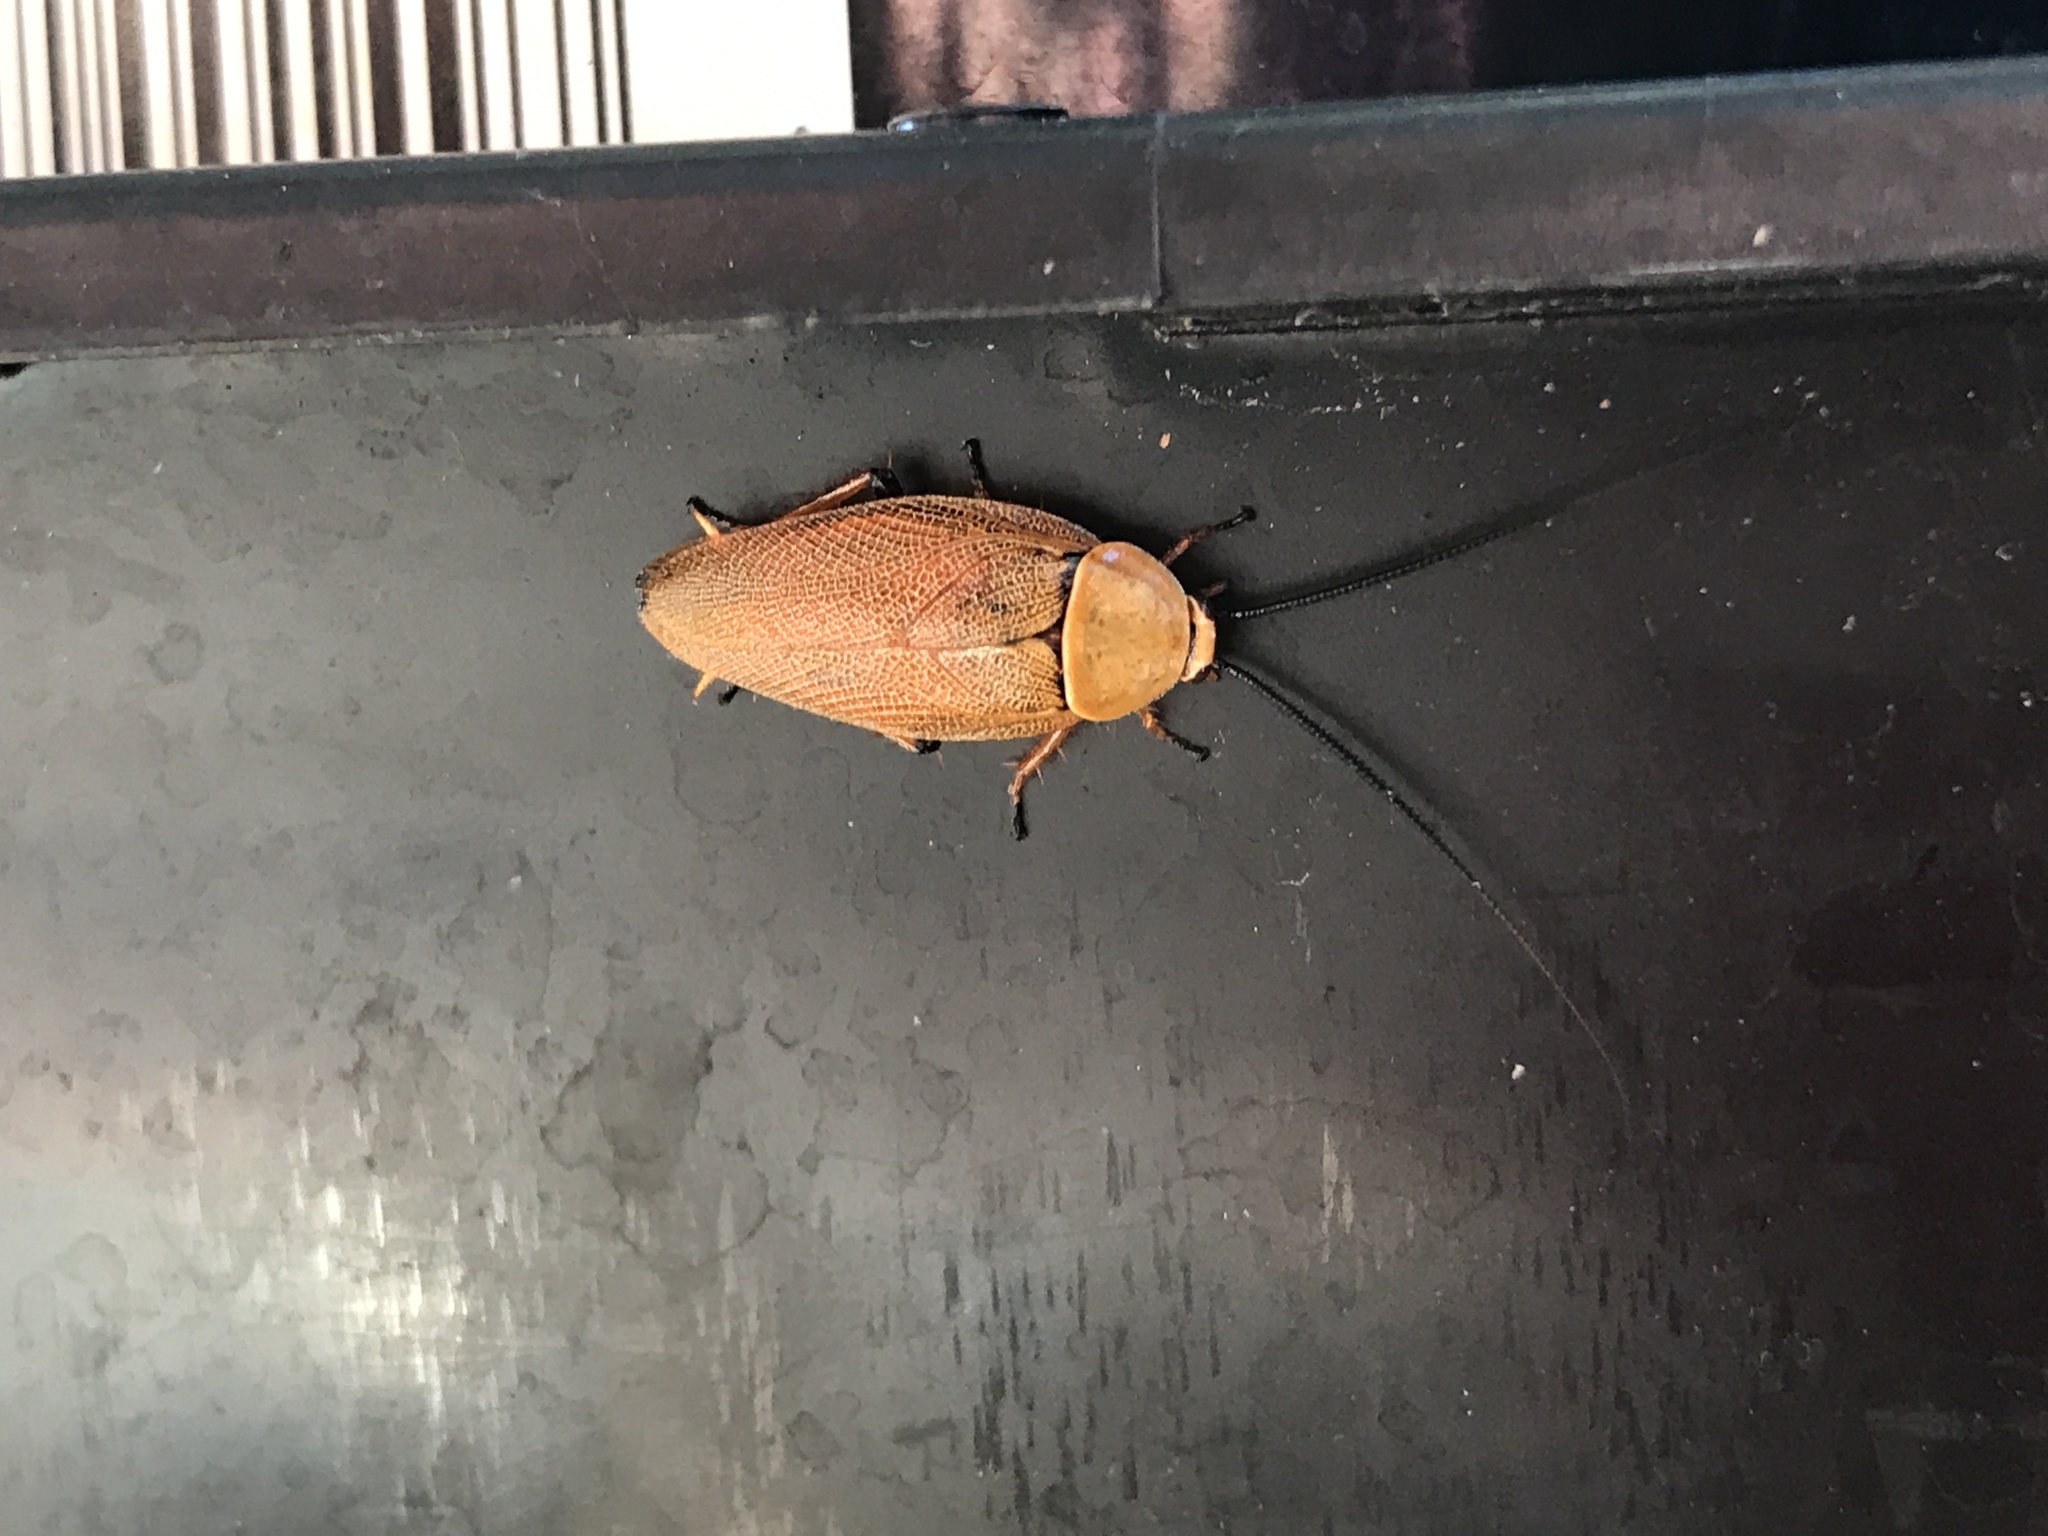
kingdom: Animalia
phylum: Arthropoda
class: Insecta
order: Blattodea
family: Ectobiidae
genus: Ellipsidion
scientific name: Ellipsidion humerale
